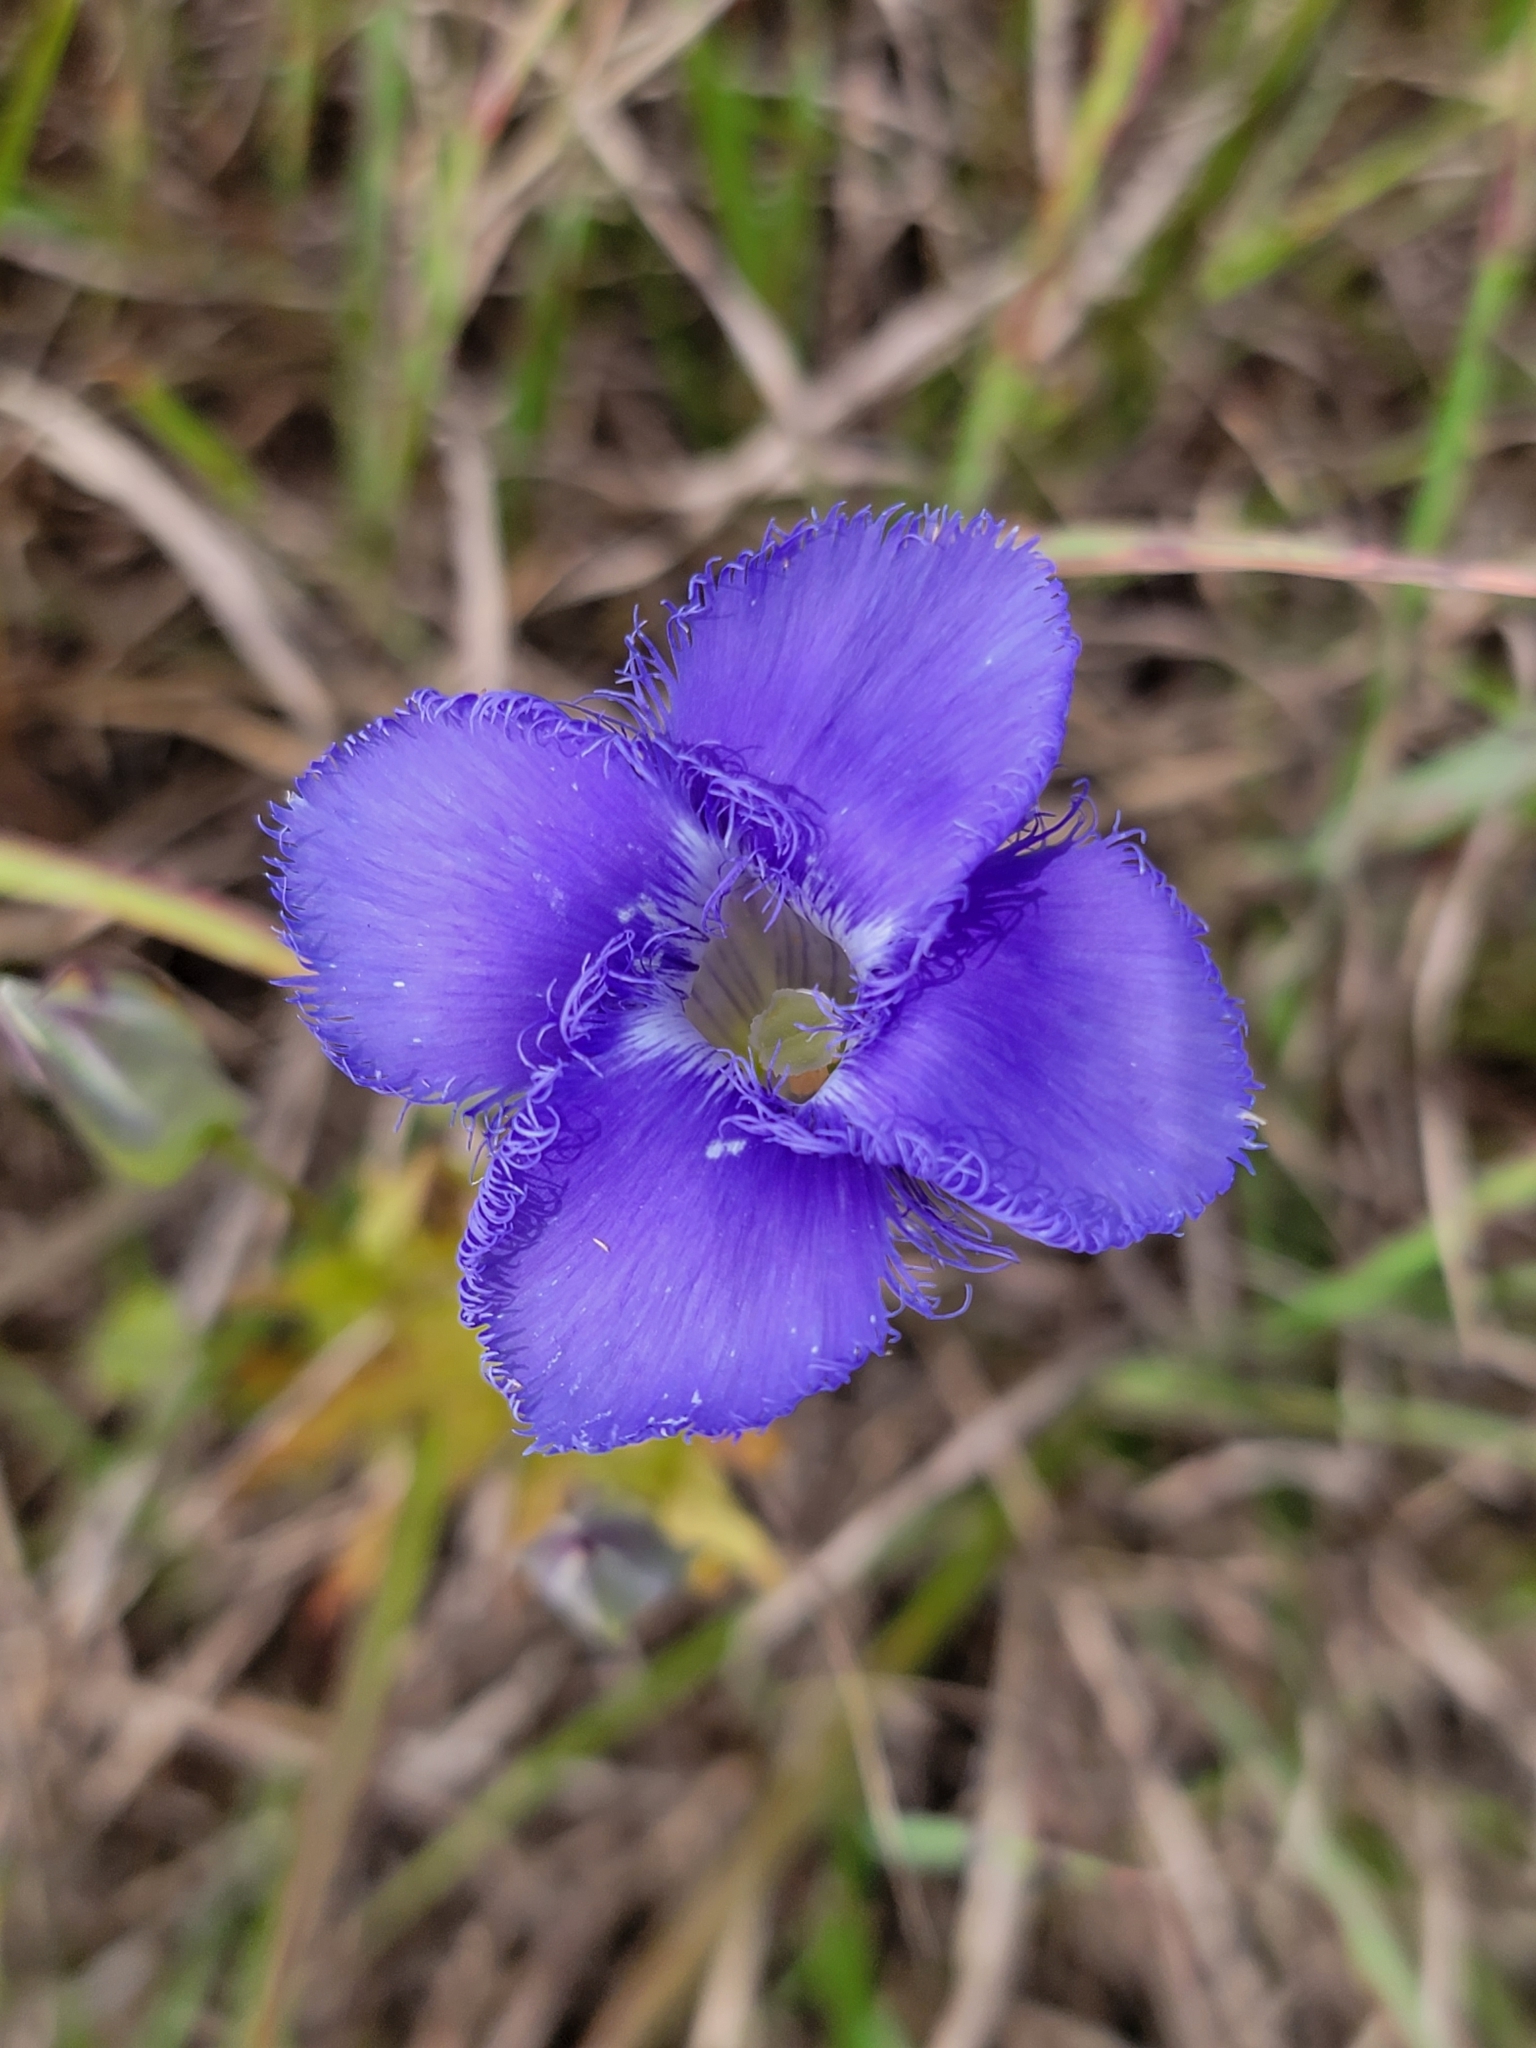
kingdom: Plantae
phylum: Tracheophyta
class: Magnoliopsida
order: Gentianales
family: Gentianaceae
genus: Gentianopsis
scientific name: Gentianopsis crinita
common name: Fringed-gentian
